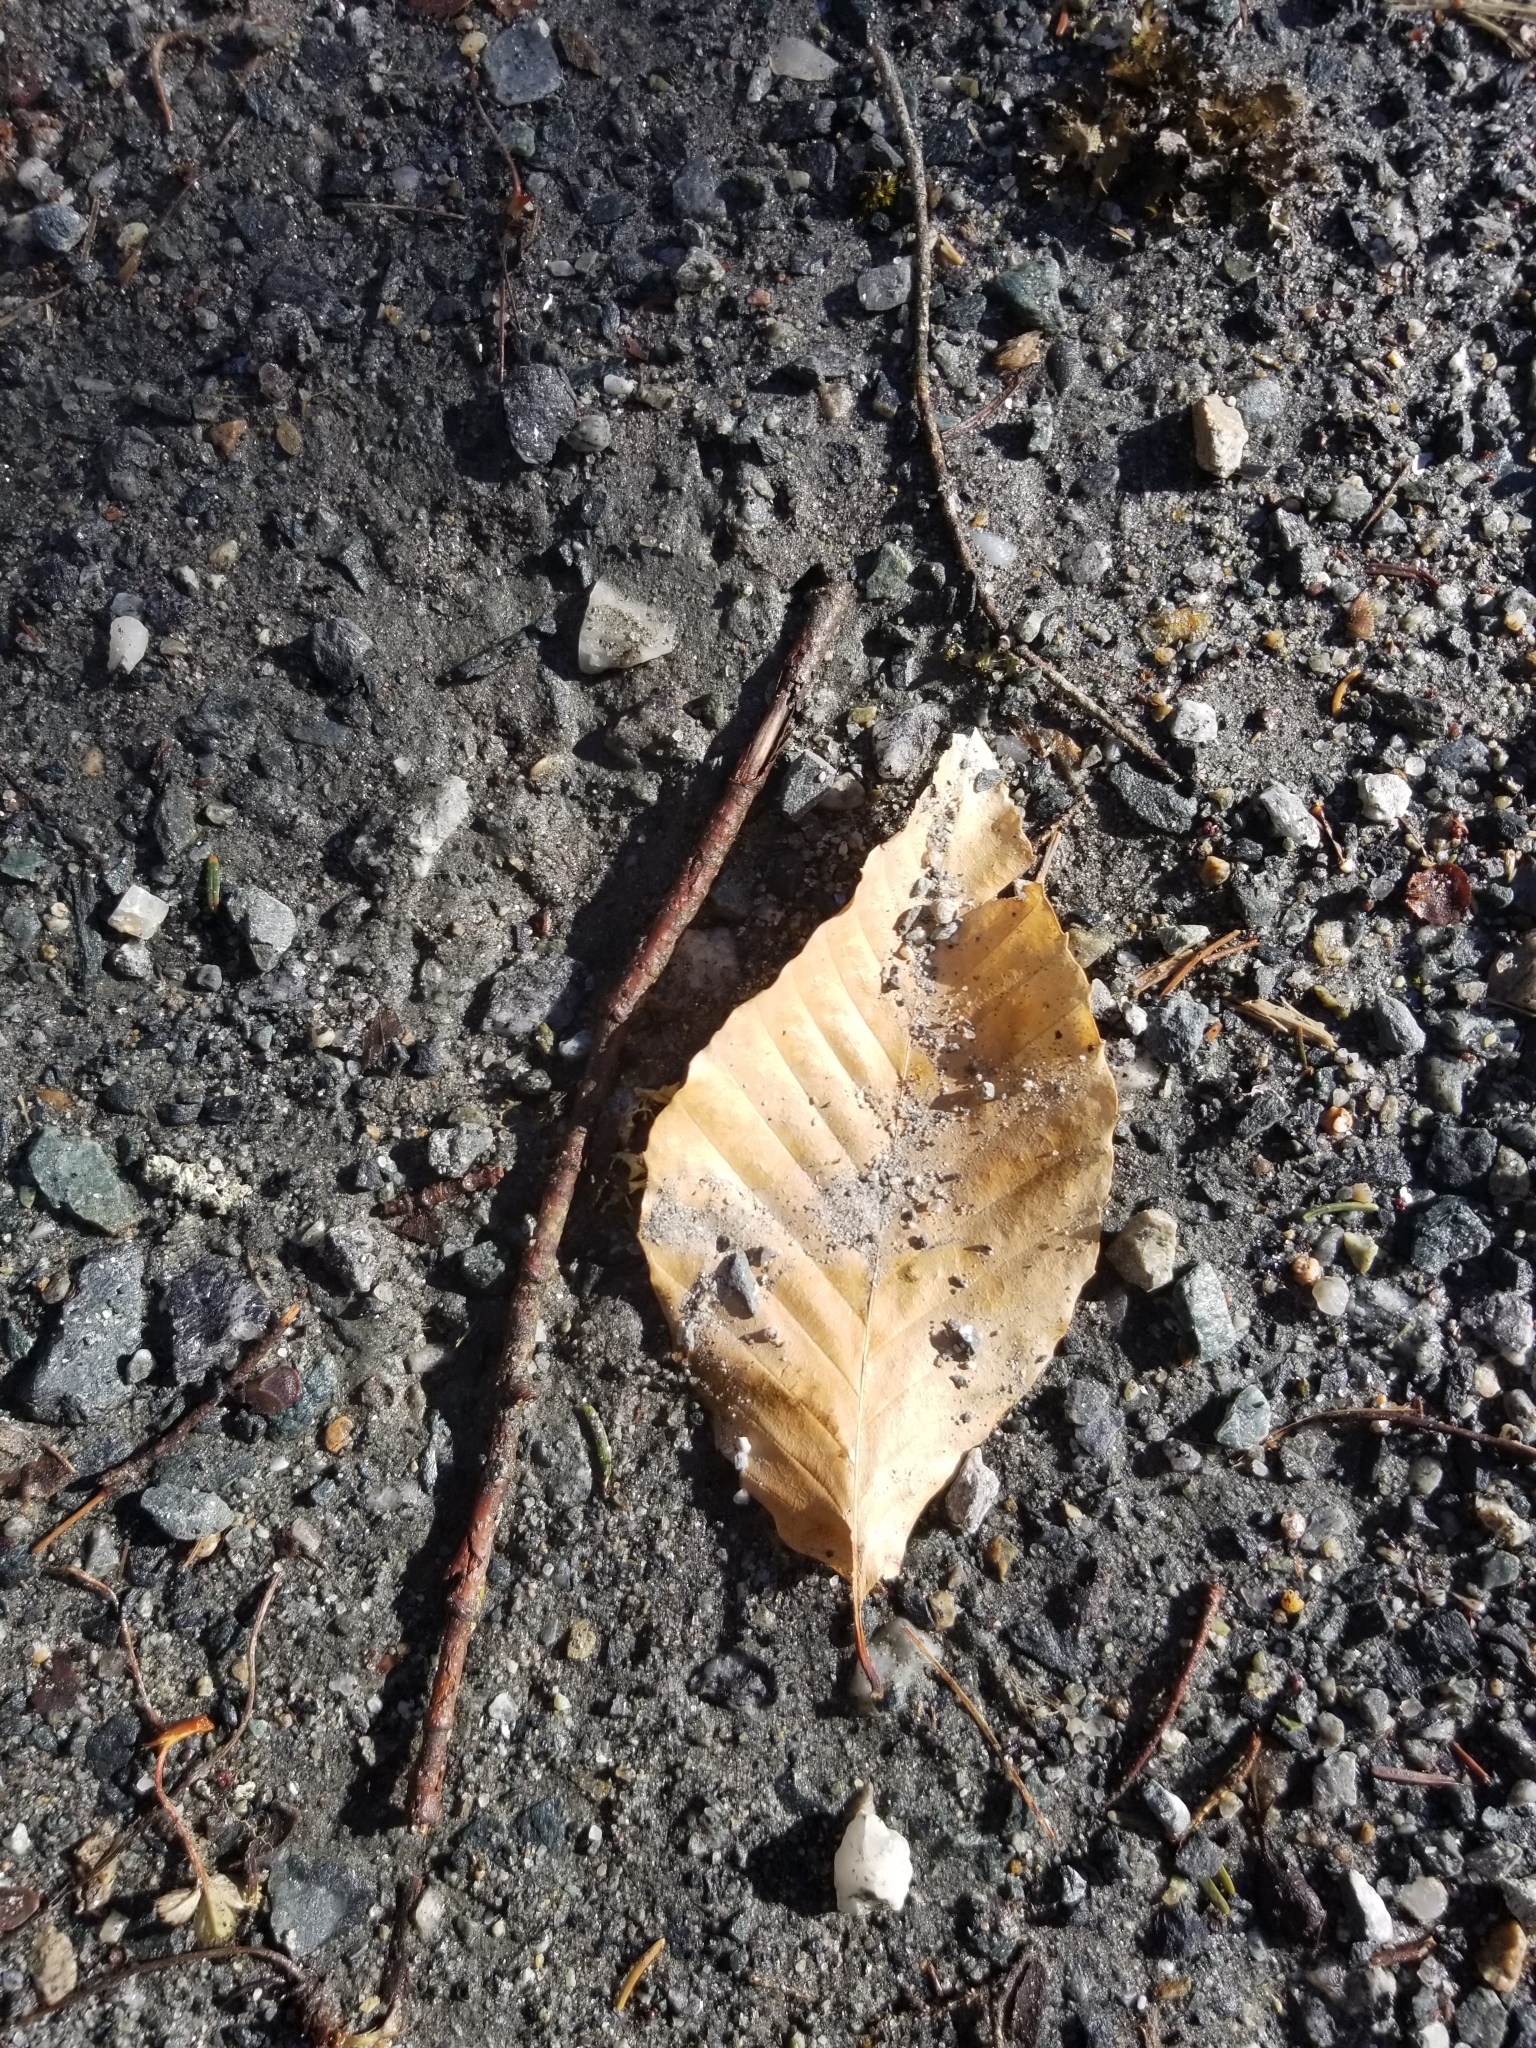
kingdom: Plantae
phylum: Tracheophyta
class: Magnoliopsida
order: Fagales
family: Fagaceae
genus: Fagus
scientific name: Fagus grandifolia
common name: American beech
